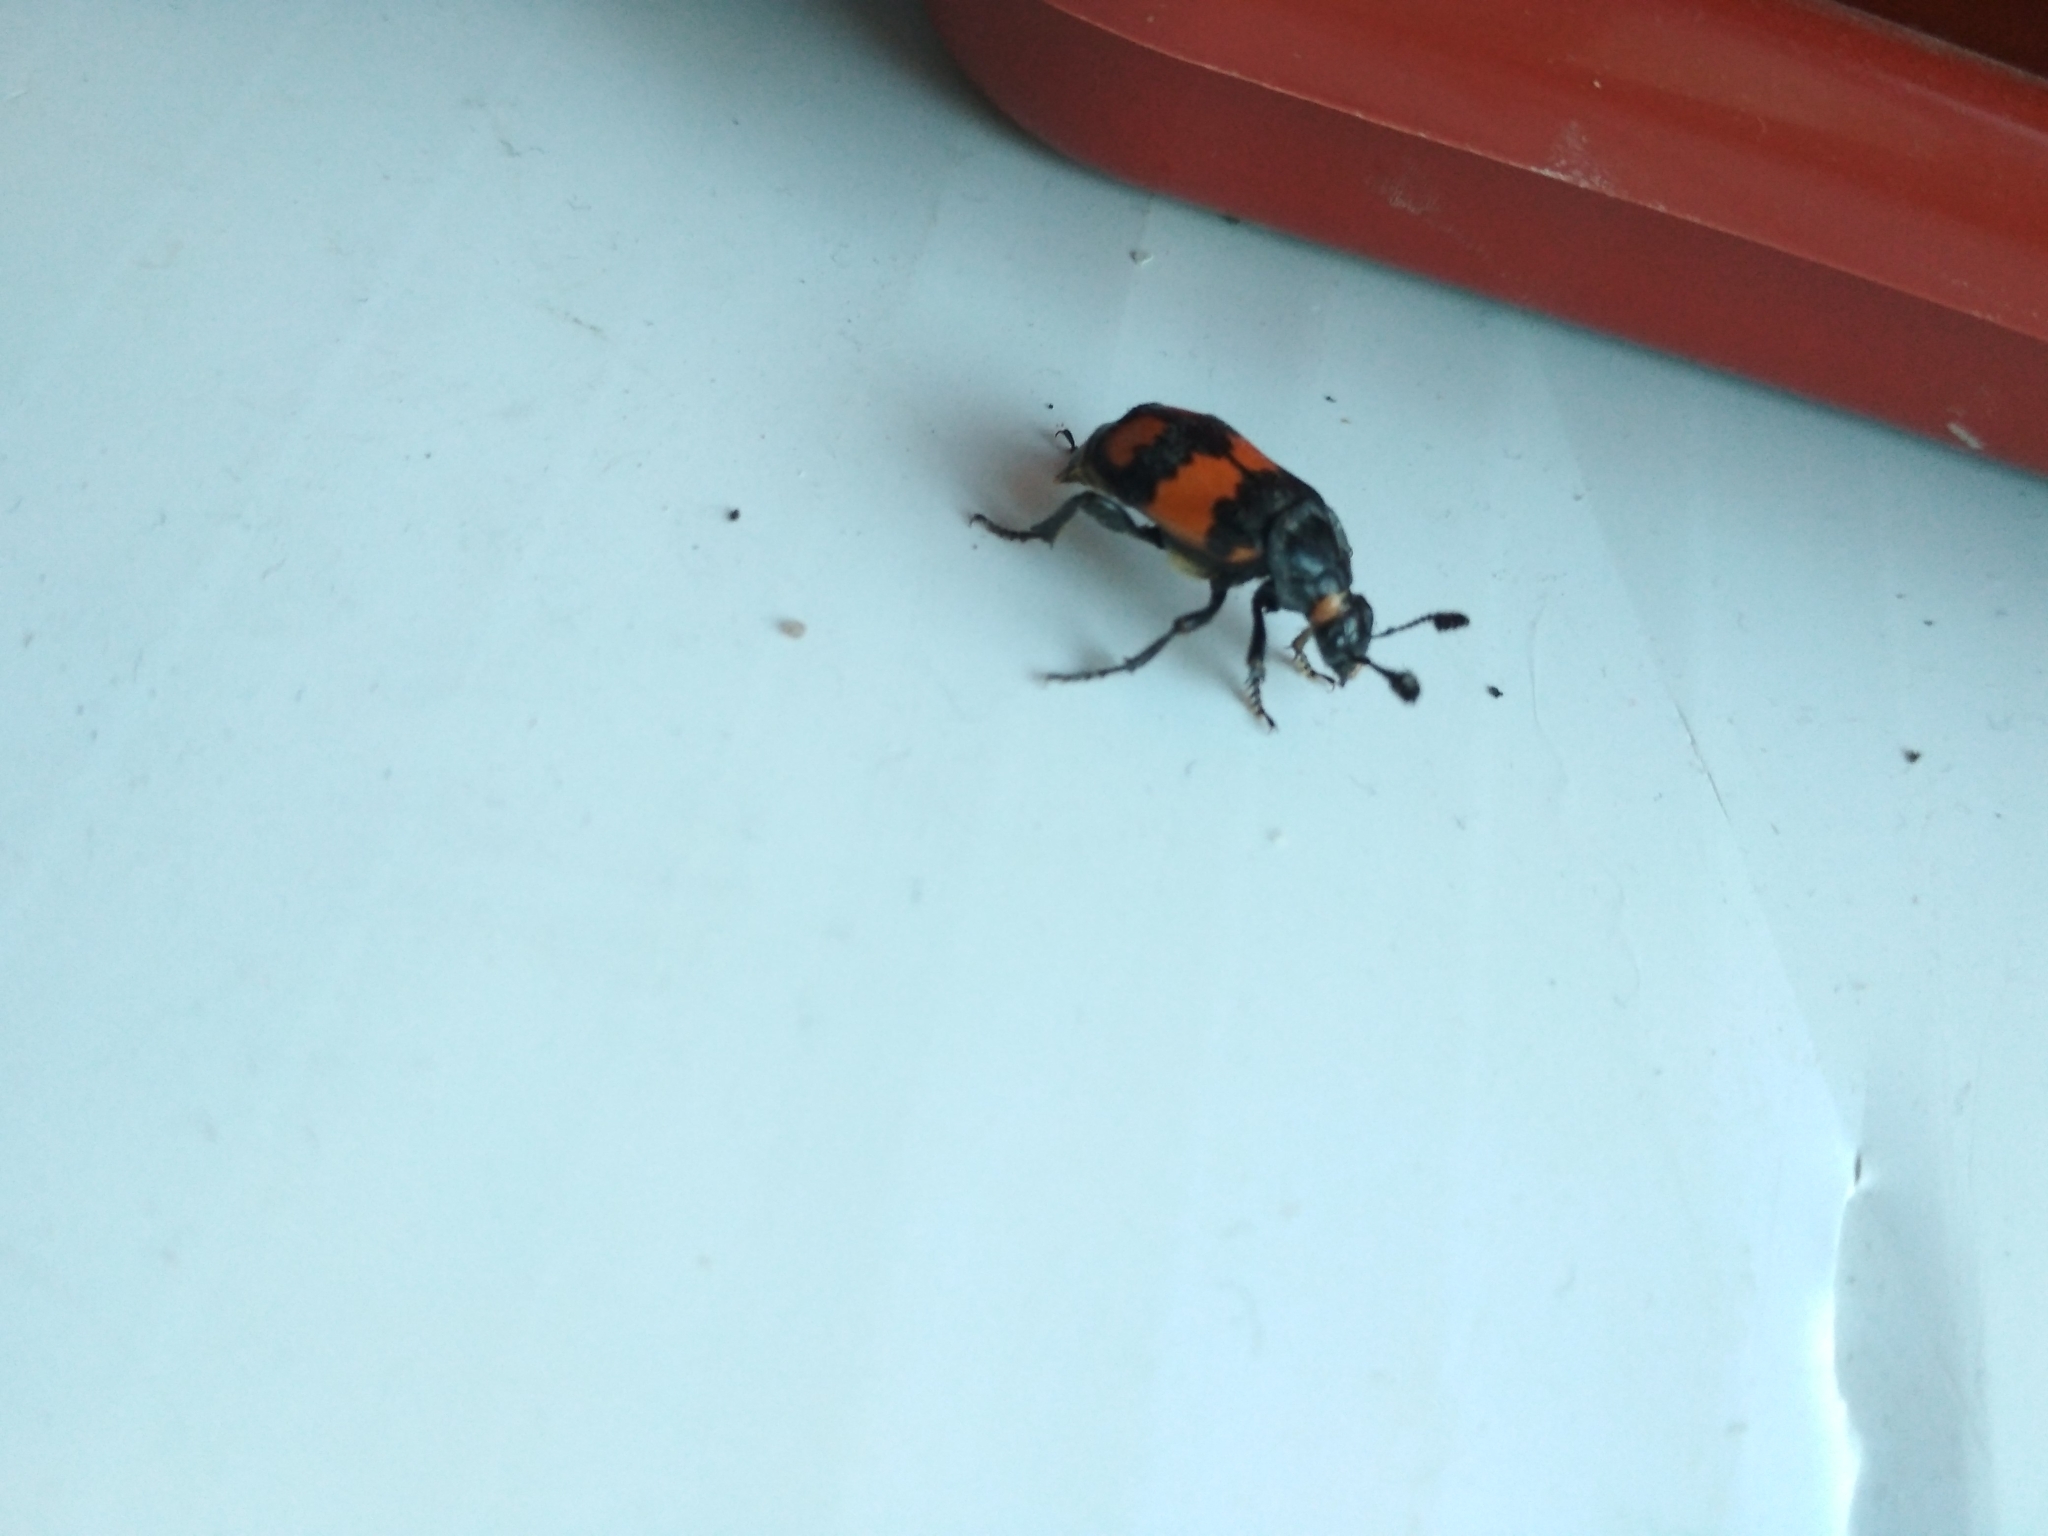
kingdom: Animalia
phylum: Arthropoda
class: Insecta
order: Coleoptera
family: Staphylinidae
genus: Nicrophorus
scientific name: Nicrophorus vespilloides
